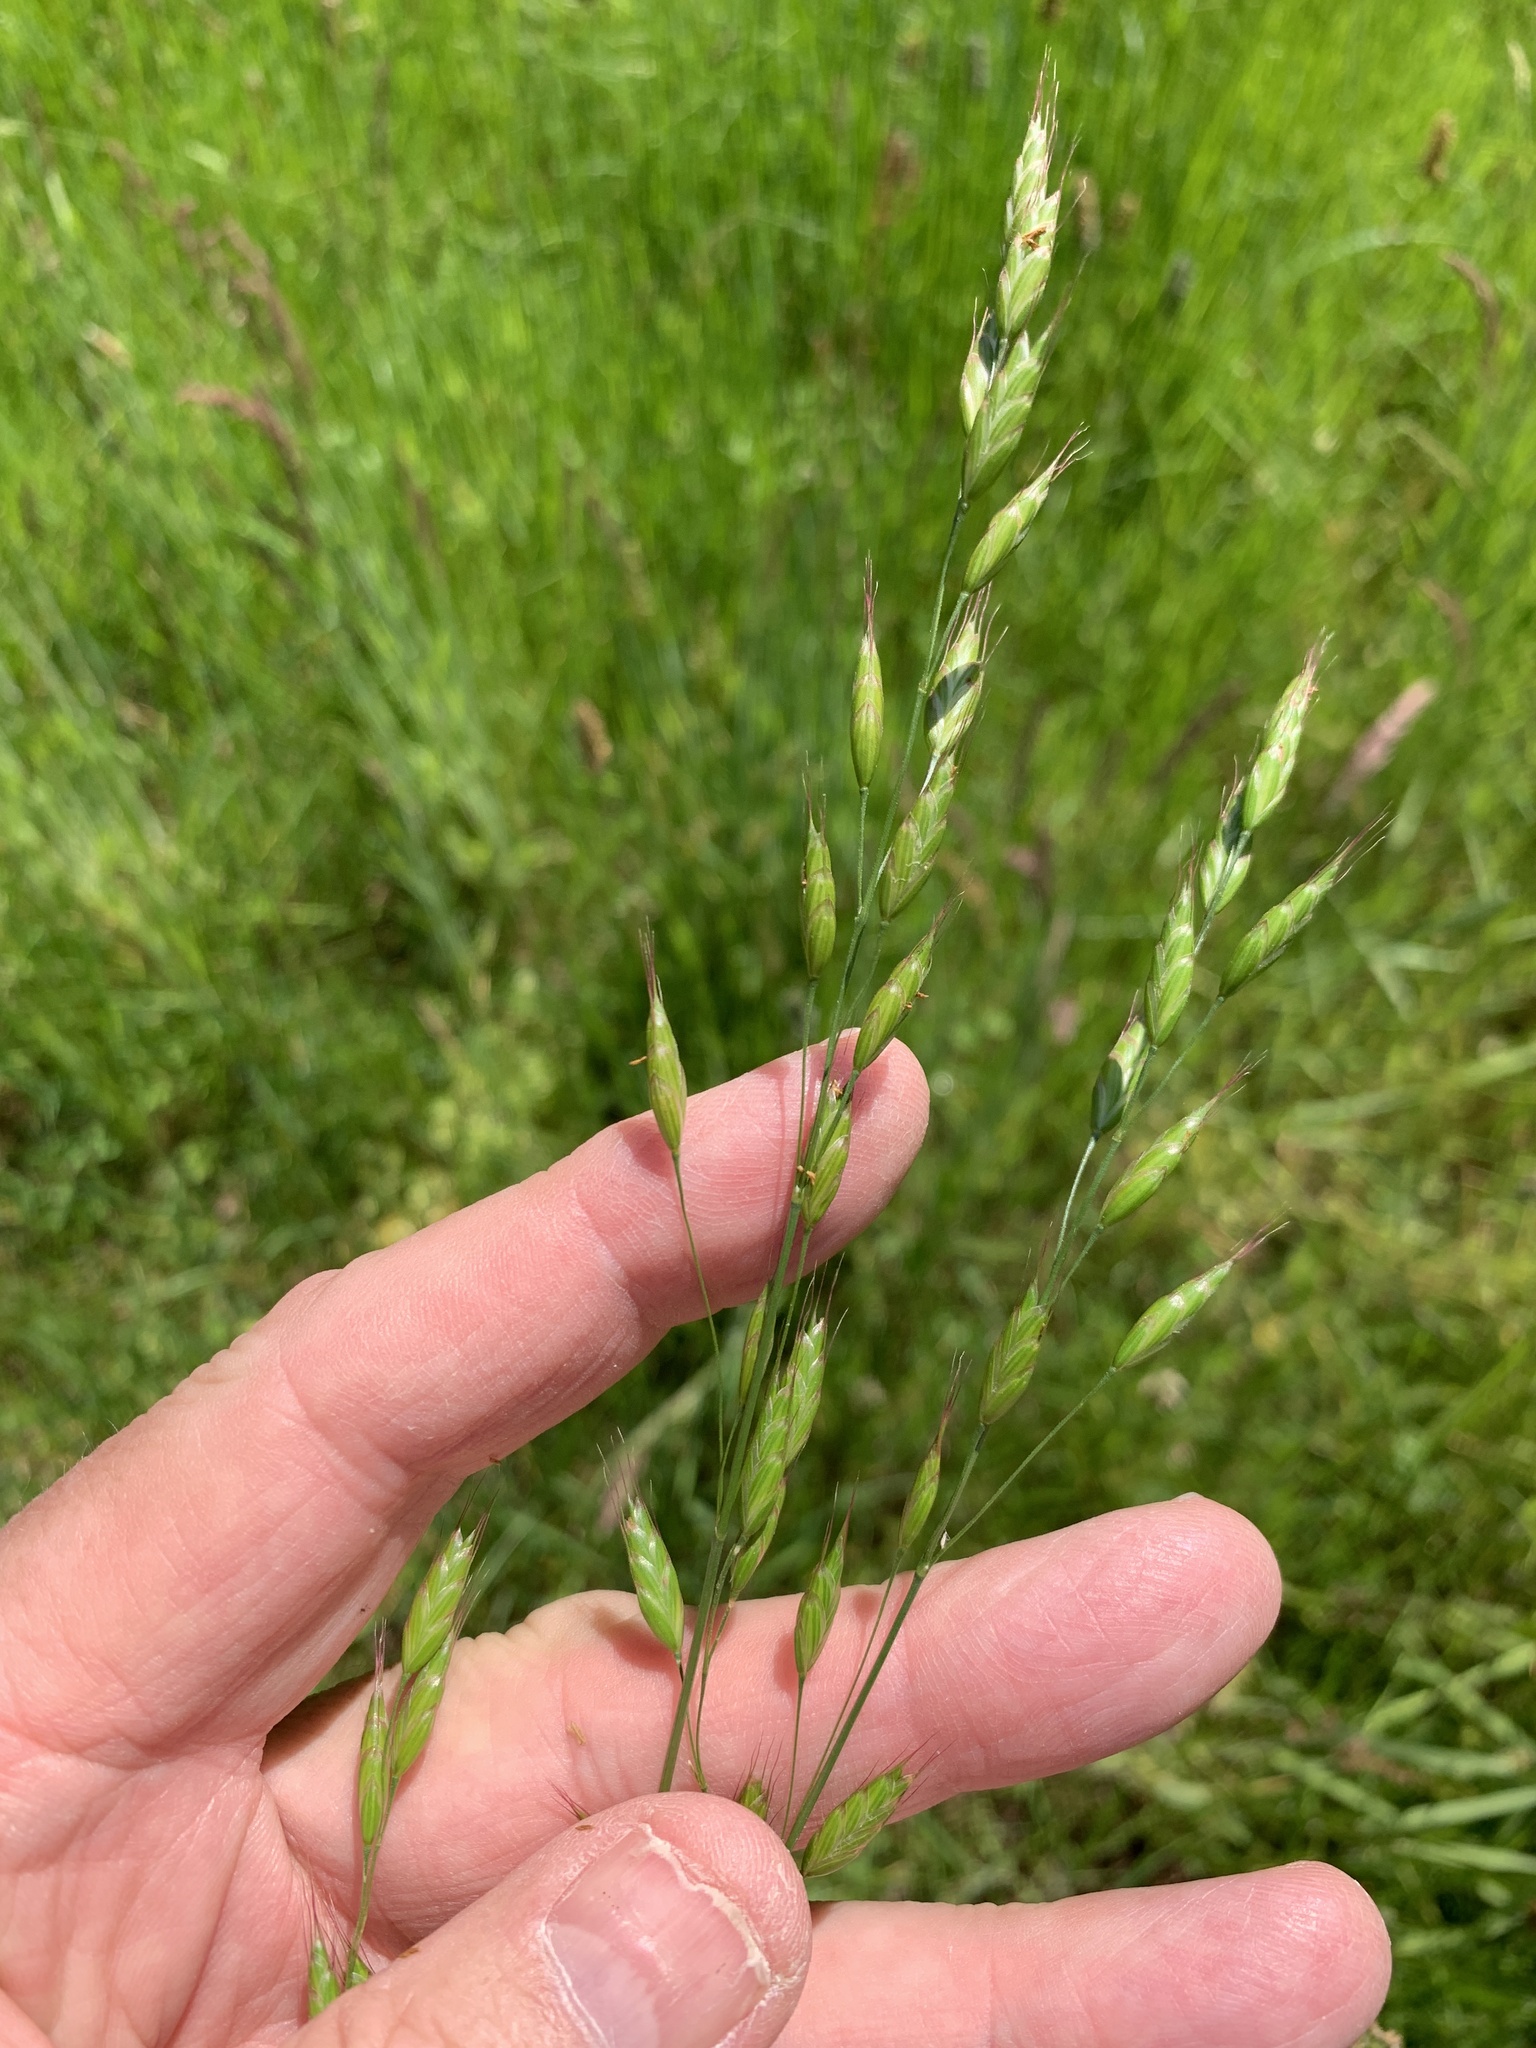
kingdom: Plantae
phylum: Tracheophyta
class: Liliopsida
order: Poales
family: Poaceae
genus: Bromus
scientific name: Bromus racemosus
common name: Bald brome
